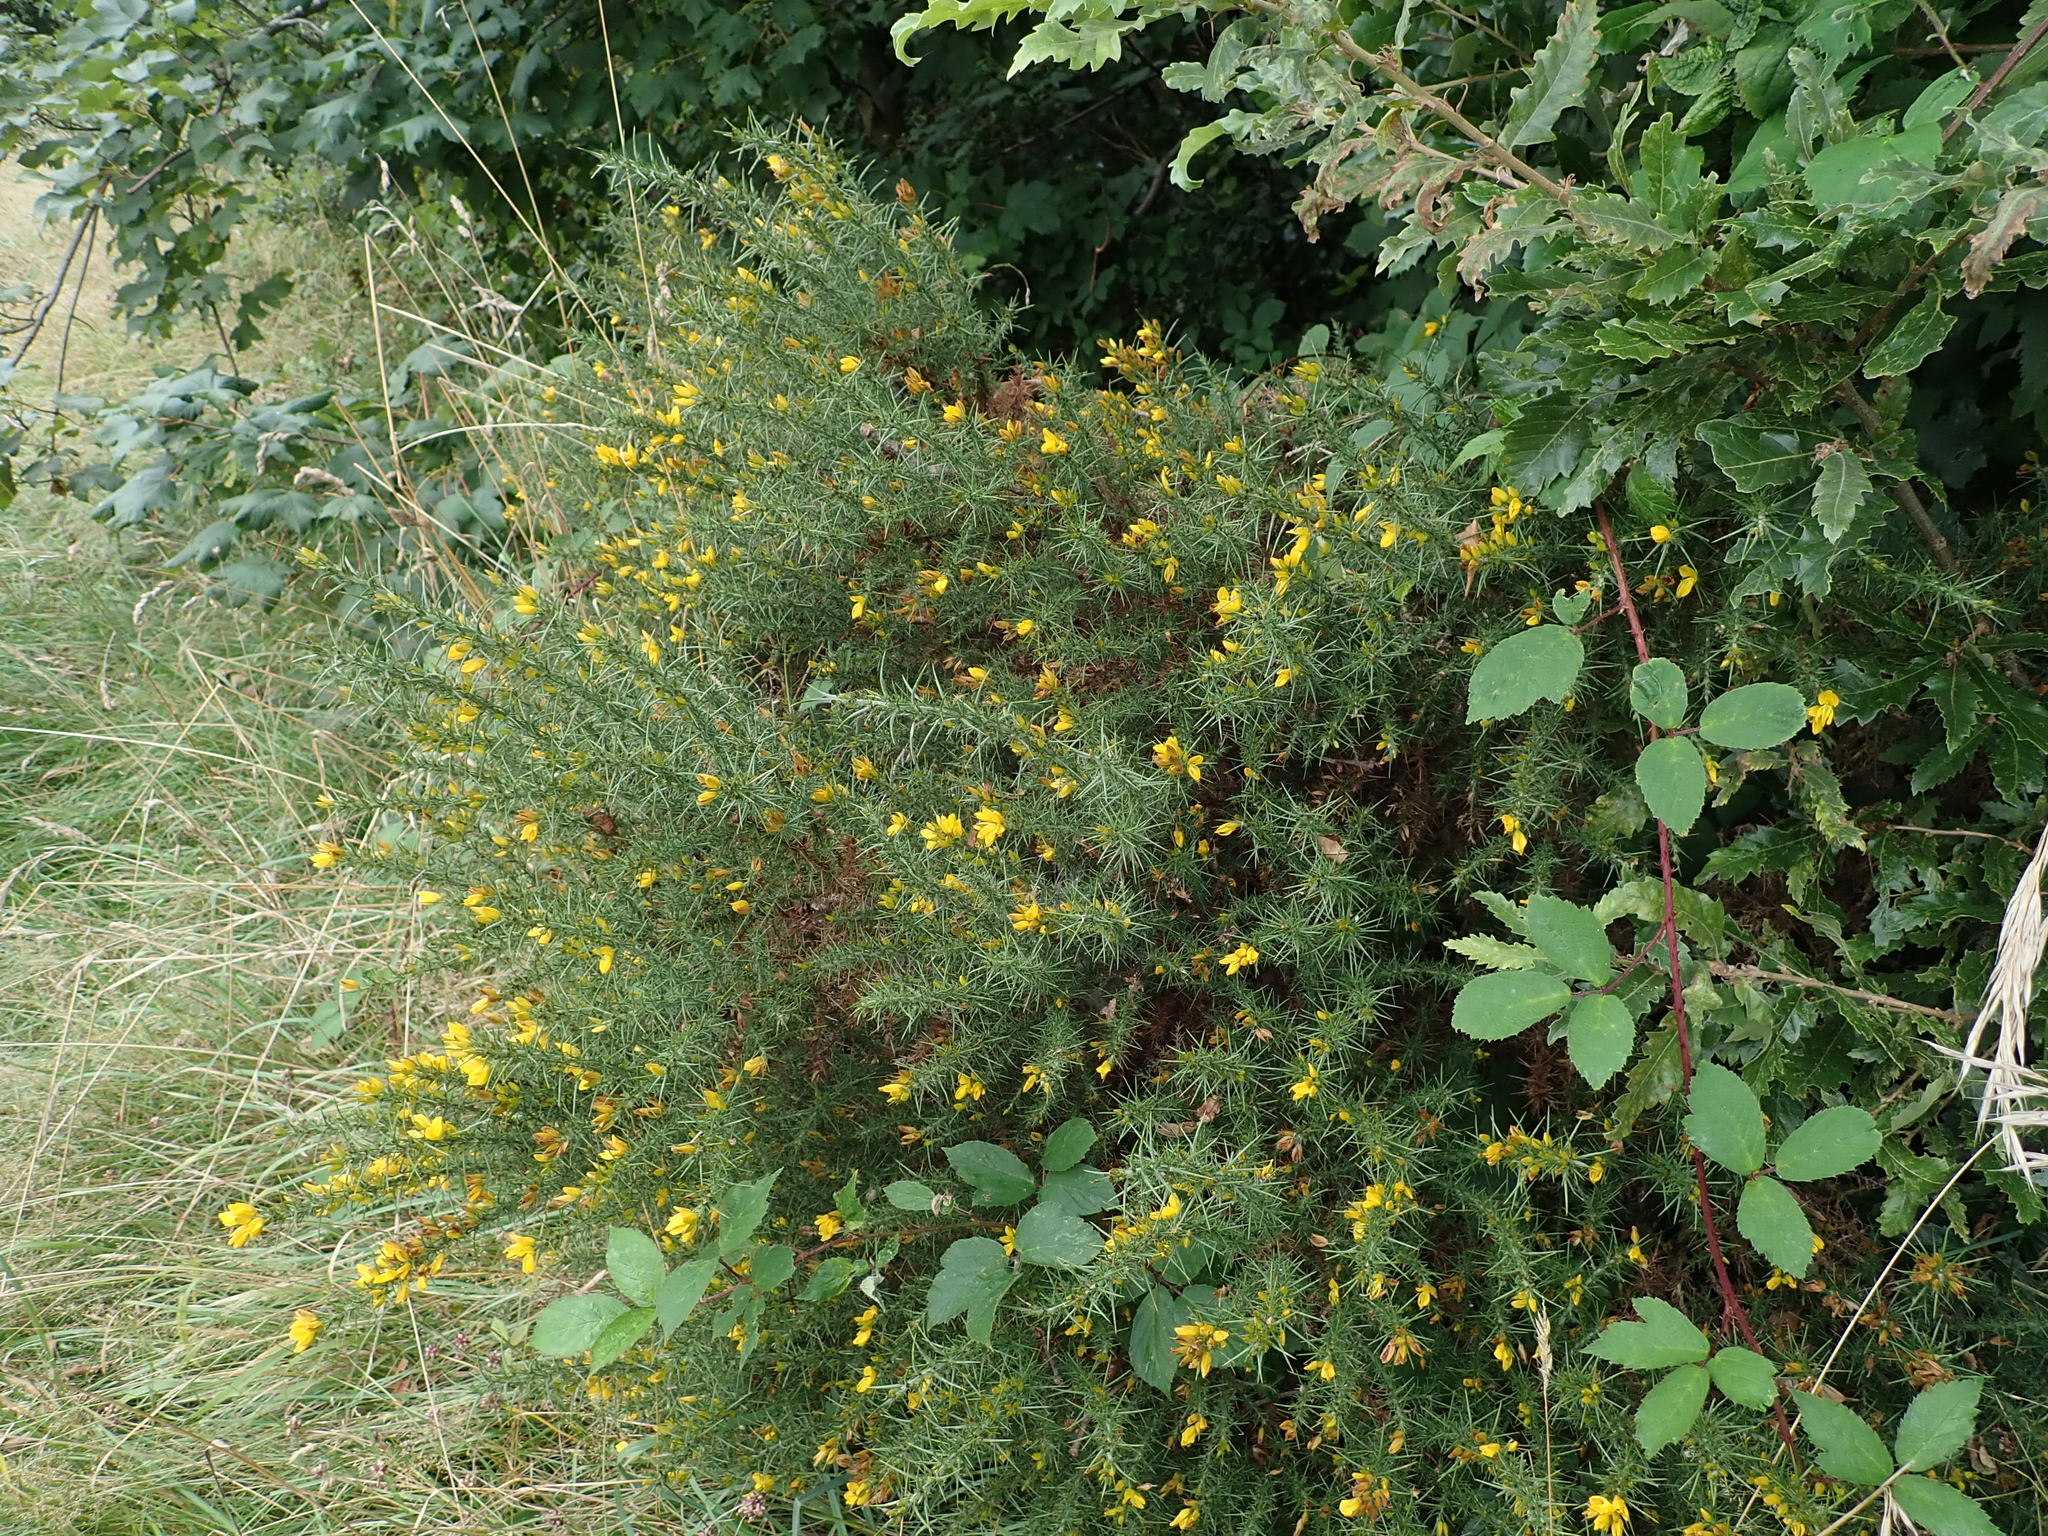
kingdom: Plantae
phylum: Tracheophyta
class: Magnoliopsida
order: Fabales
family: Fabaceae
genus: Ulex
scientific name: Ulex gallii
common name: Western gorse
